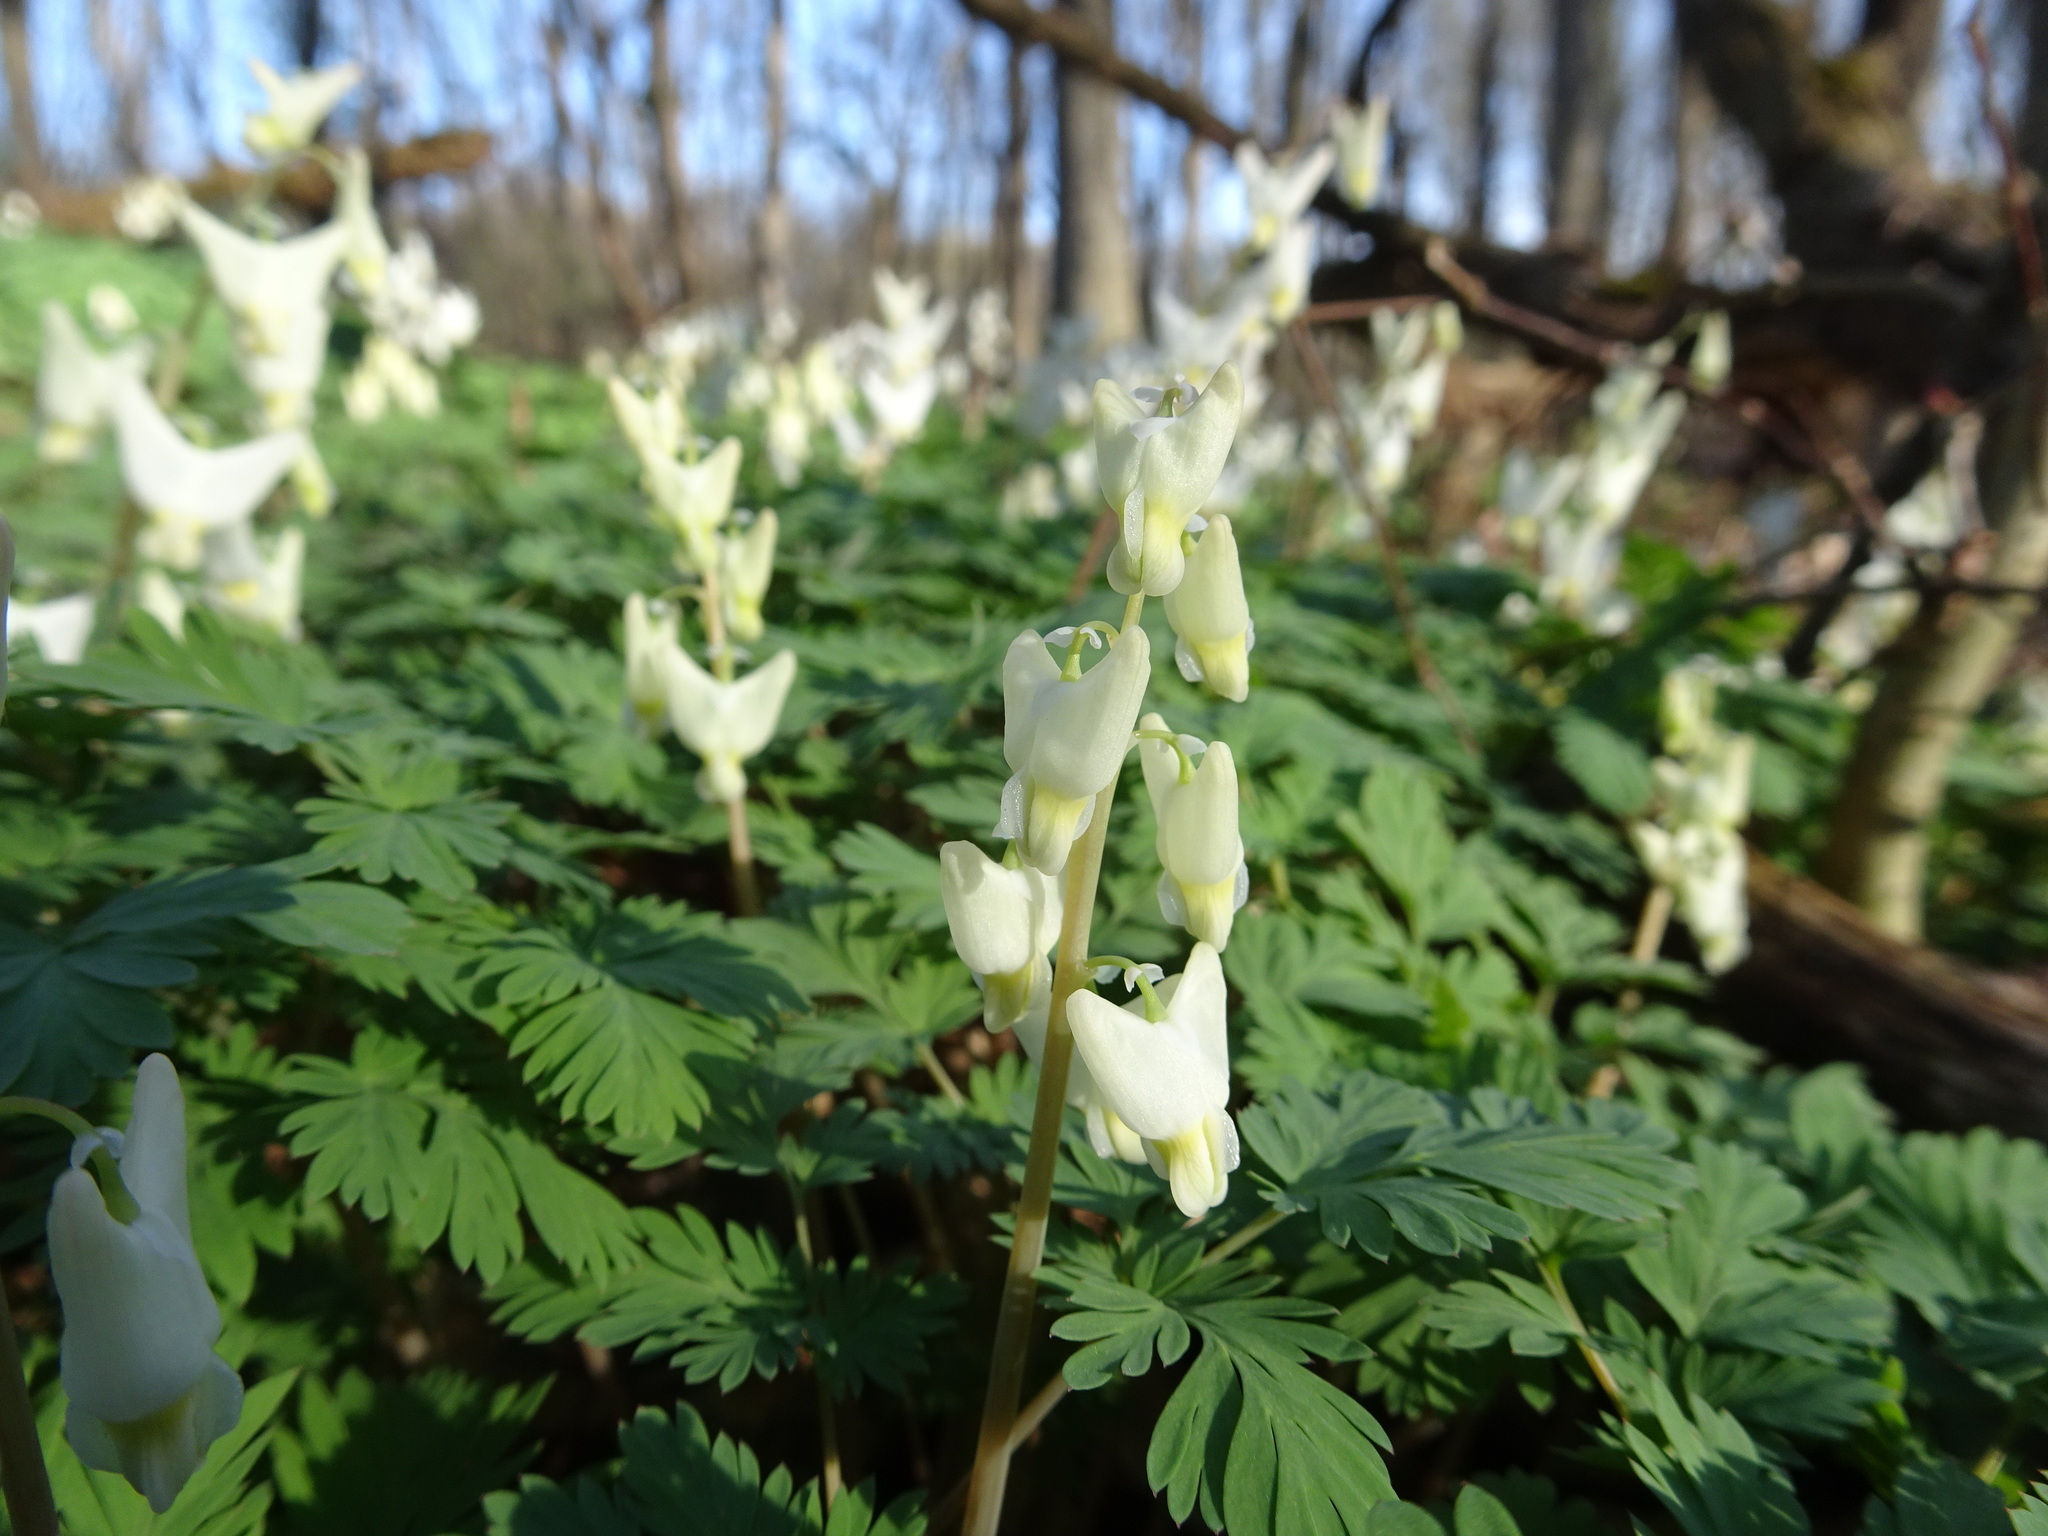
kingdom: Plantae
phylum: Tracheophyta
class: Magnoliopsida
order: Ranunculales
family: Papaveraceae
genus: Dicentra
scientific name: Dicentra cucullaria
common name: Dutchman's breeches
